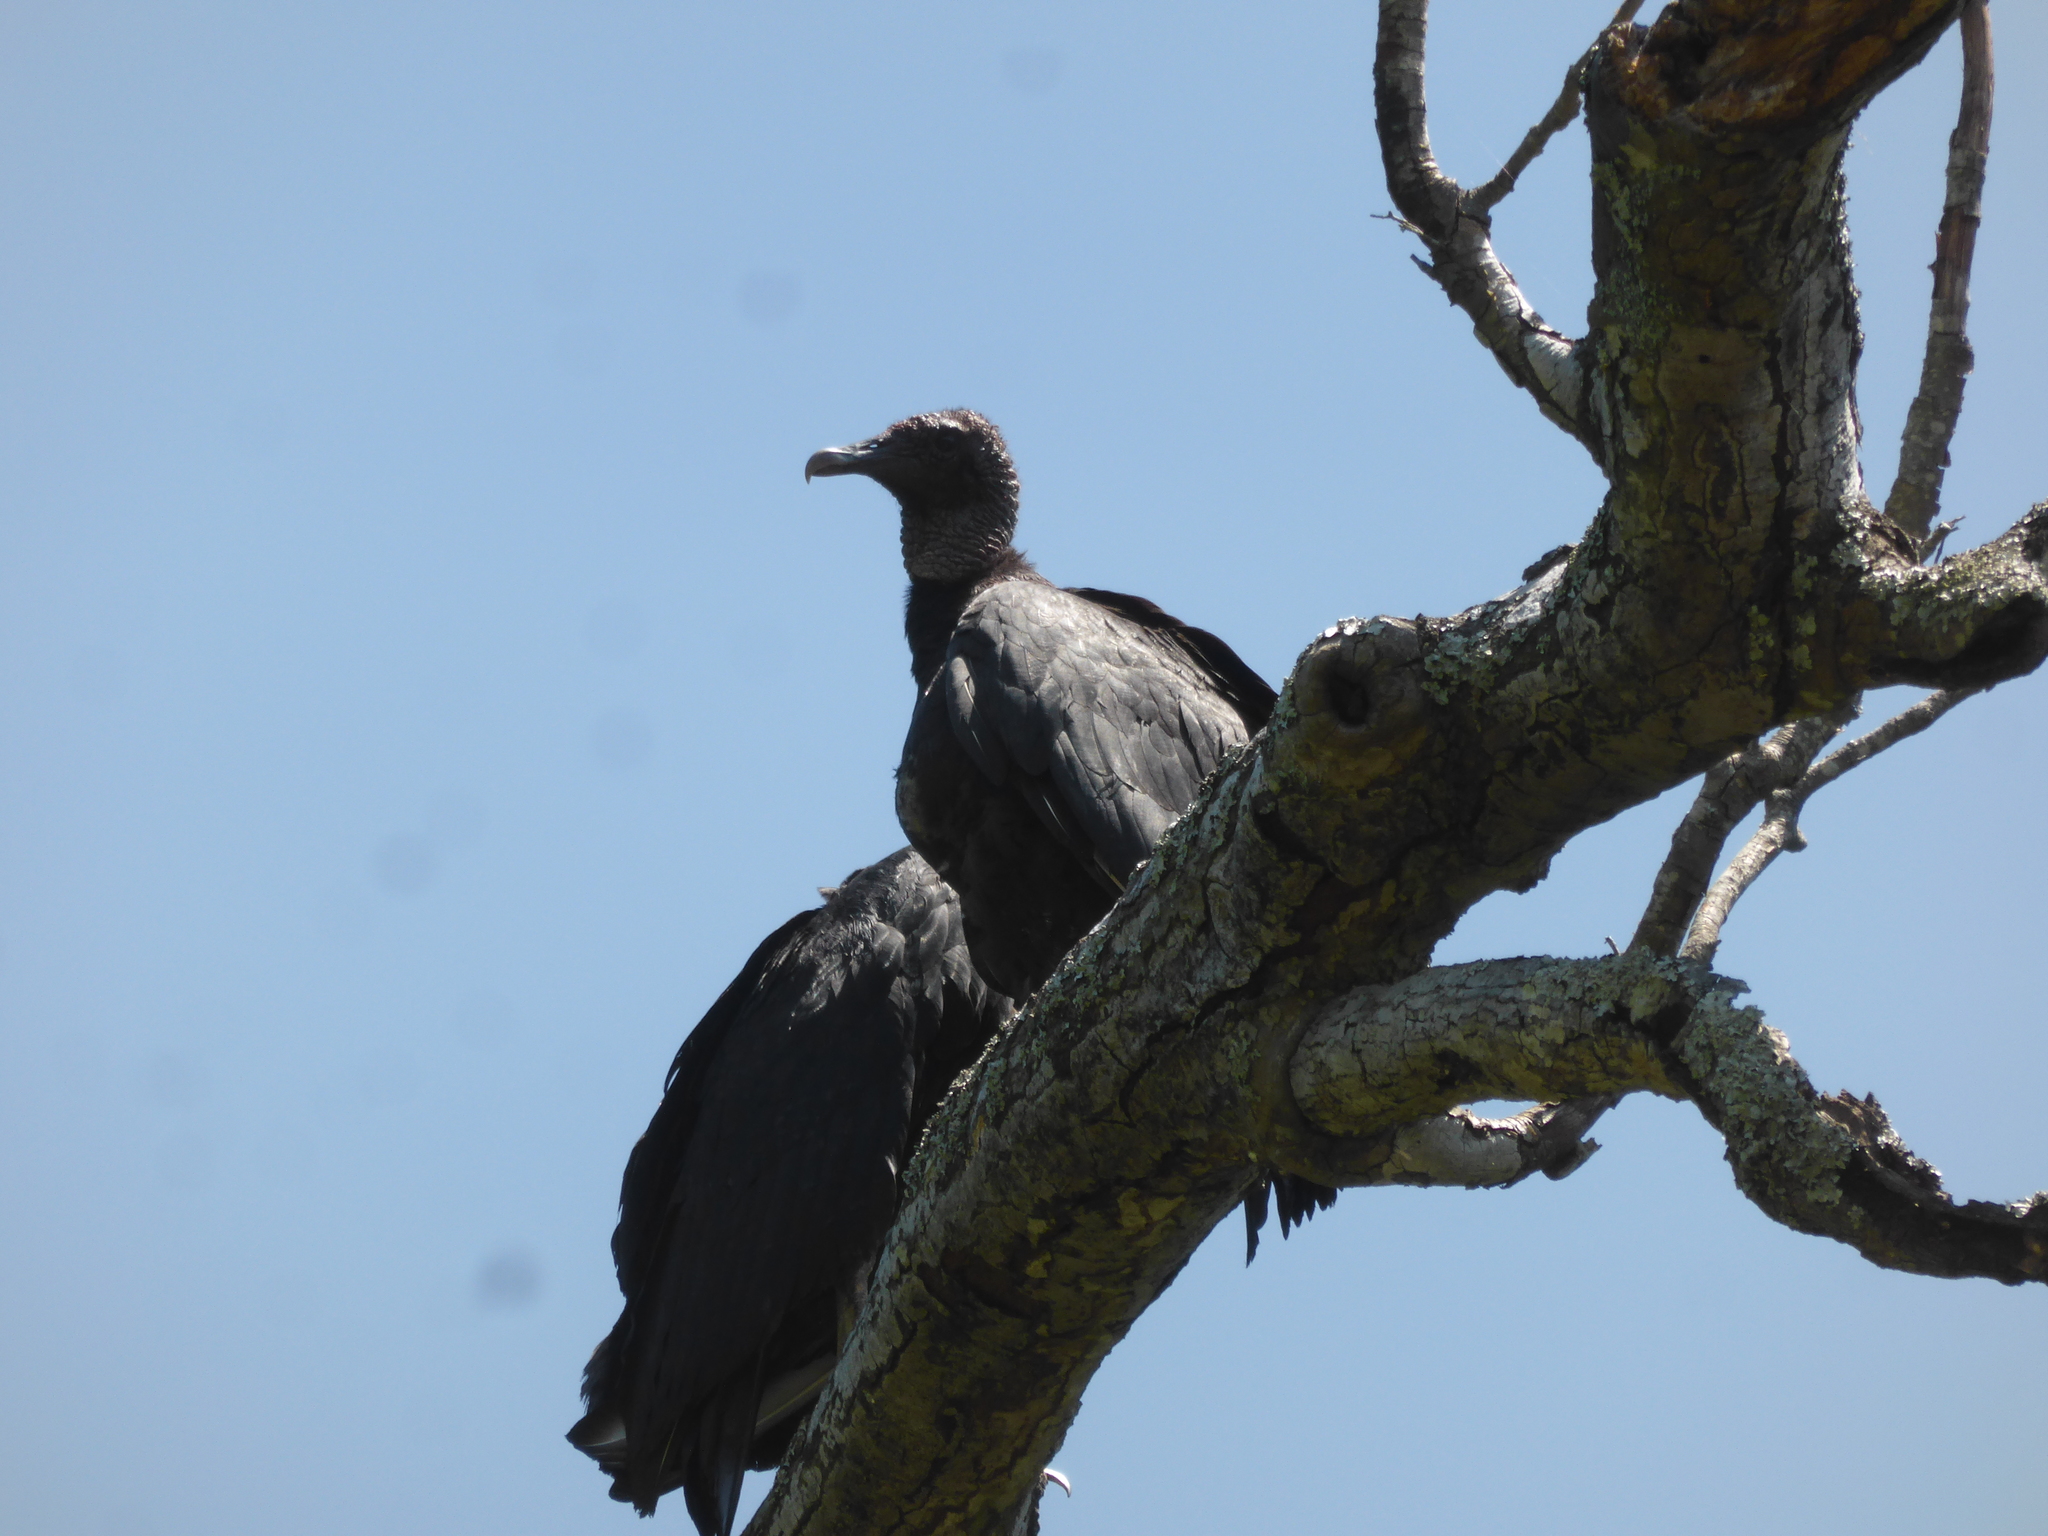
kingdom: Animalia
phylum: Chordata
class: Aves
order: Accipitriformes
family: Cathartidae
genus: Coragyps
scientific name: Coragyps atratus
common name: Black vulture
